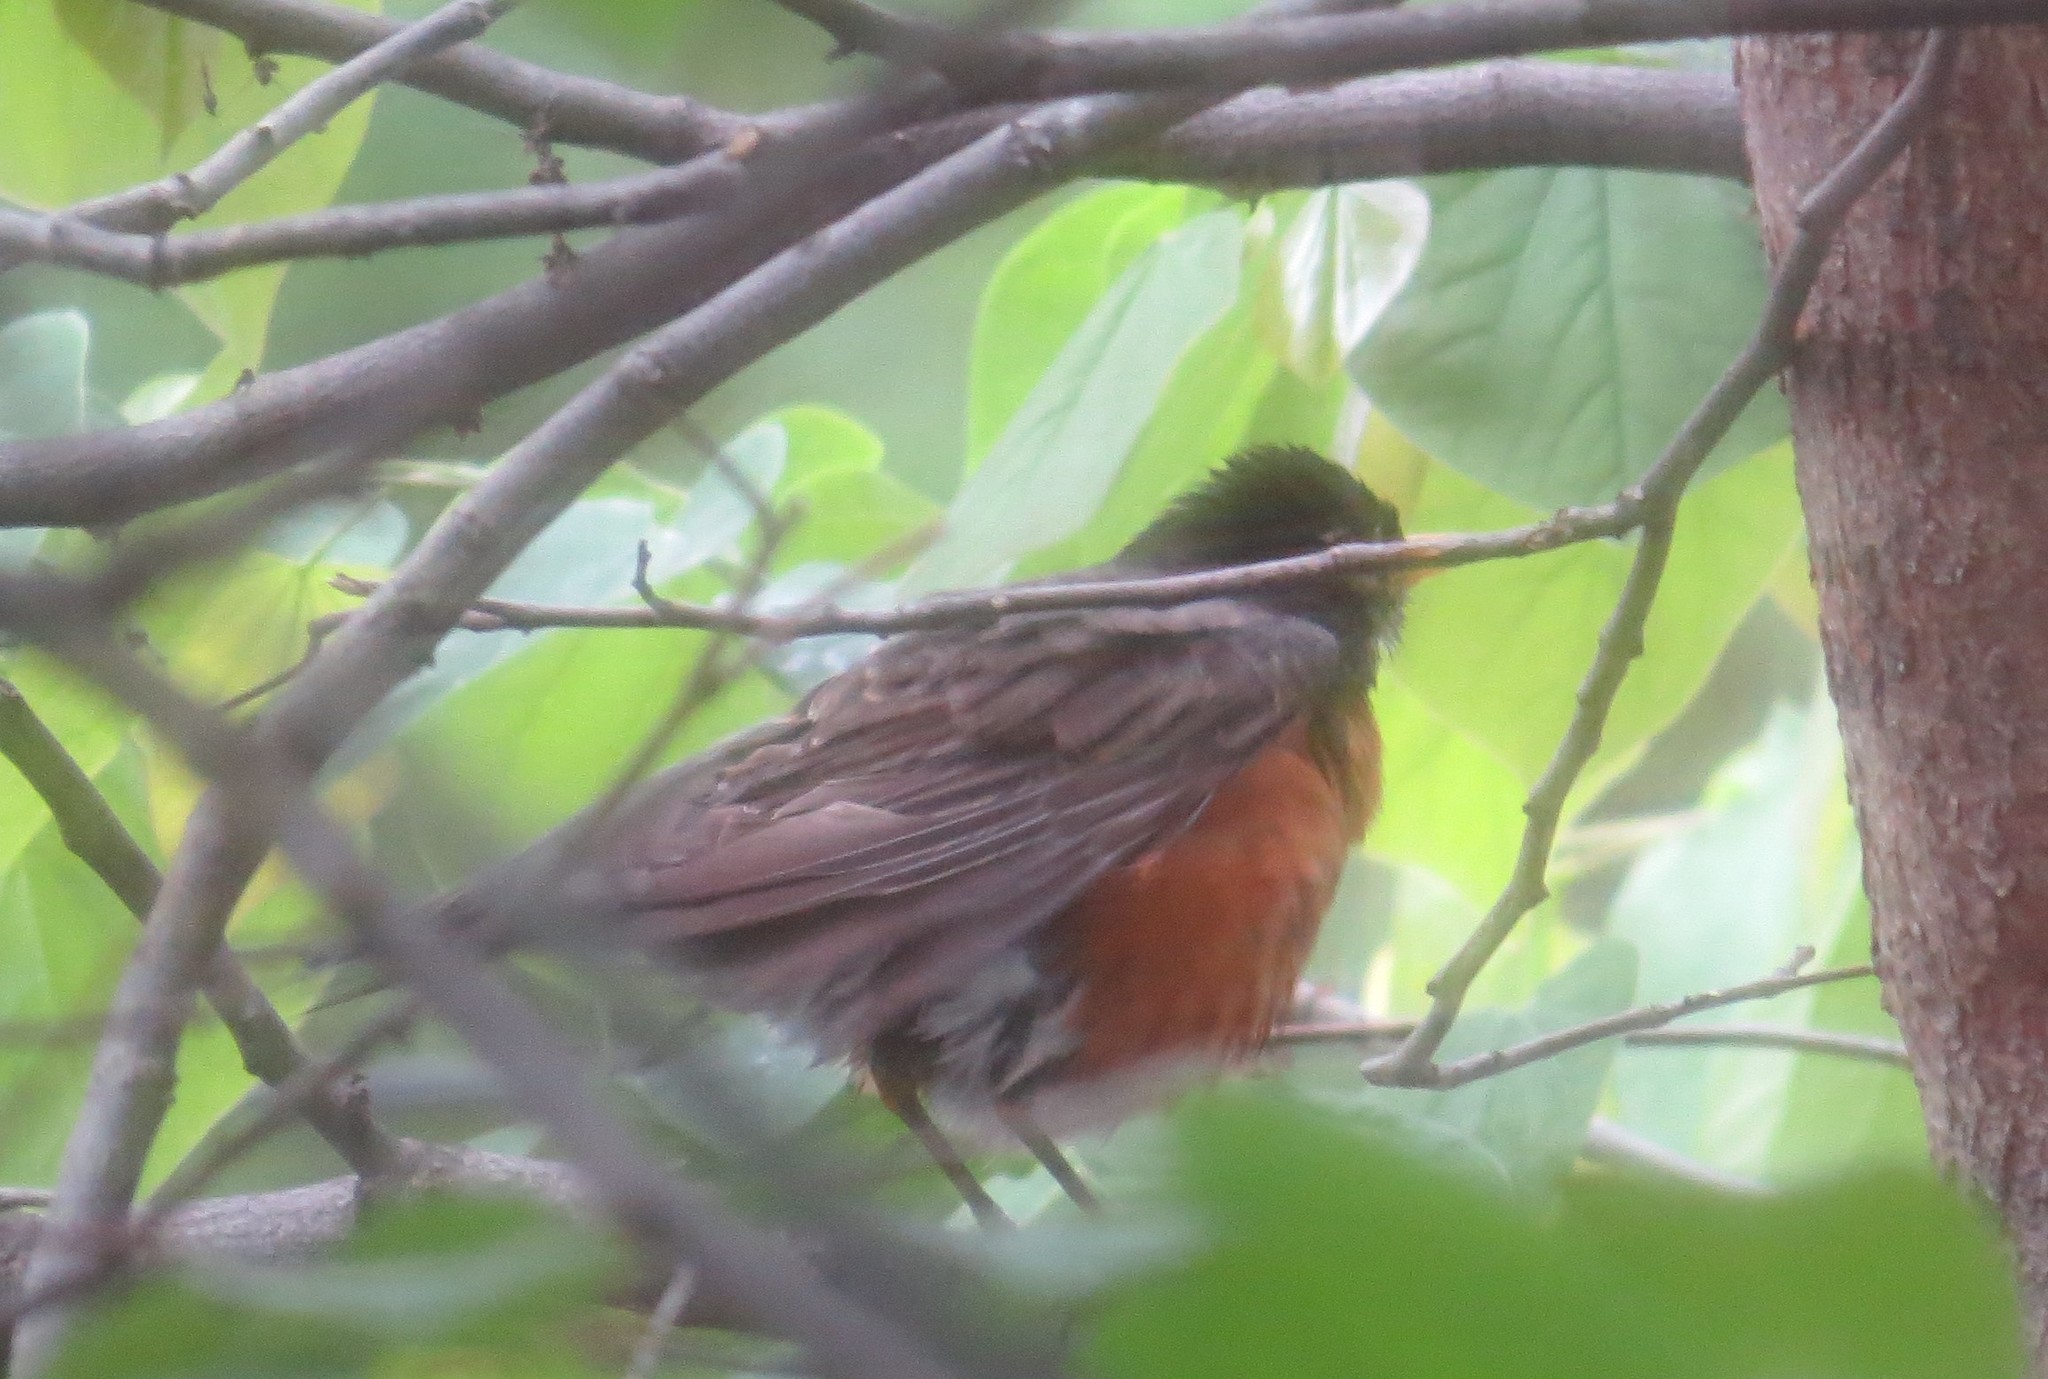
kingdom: Animalia
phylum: Chordata
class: Aves
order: Passeriformes
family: Turdidae
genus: Turdus
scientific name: Turdus migratorius
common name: American robin
